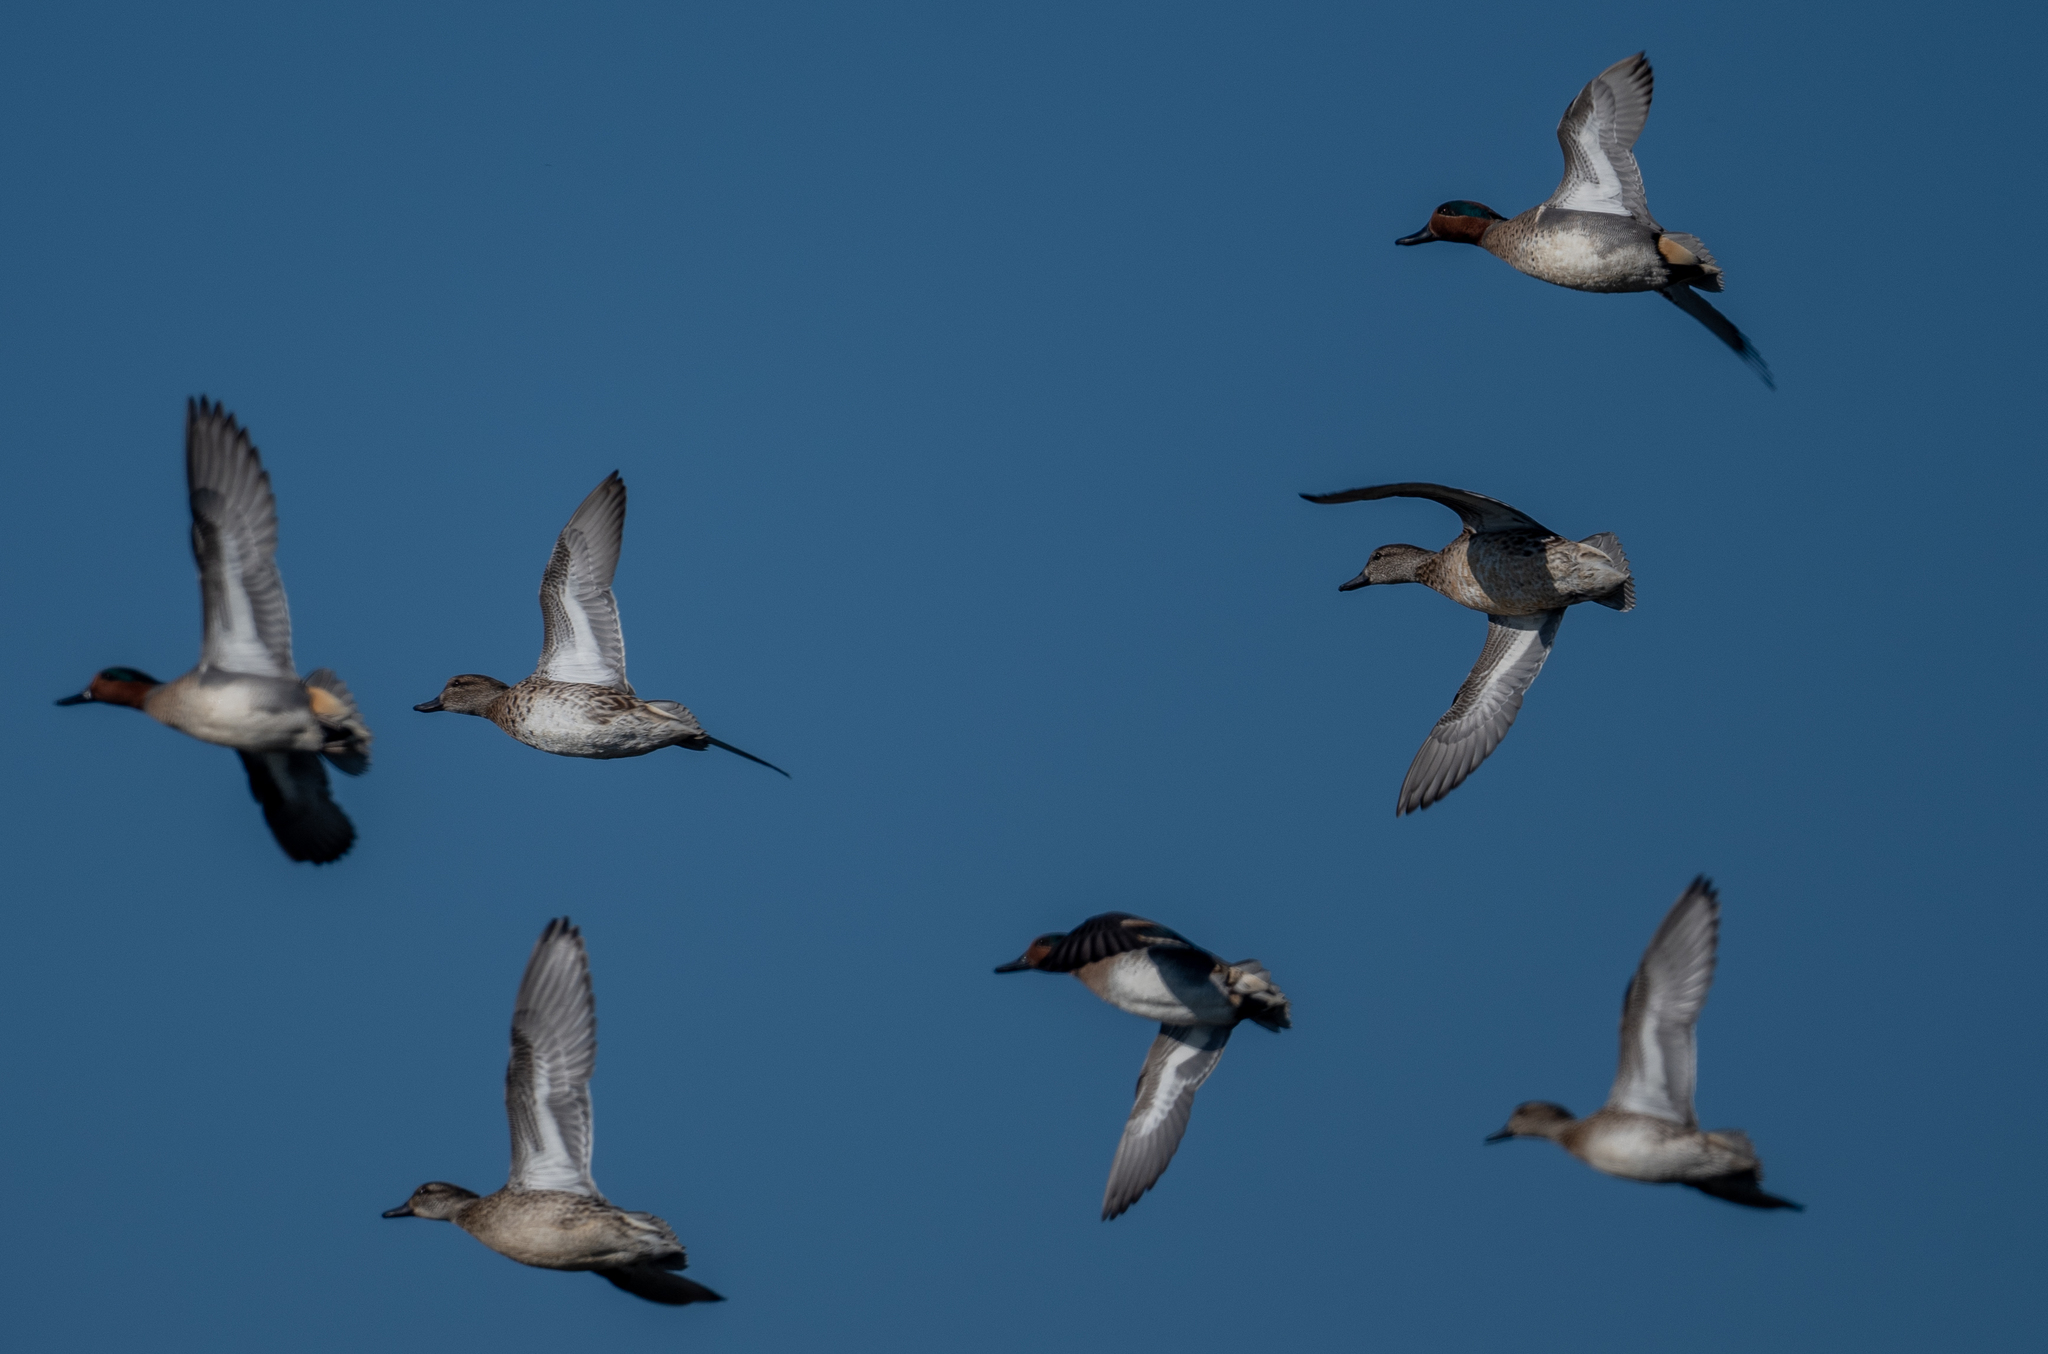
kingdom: Animalia
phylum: Chordata
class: Aves
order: Anseriformes
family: Anatidae
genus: Anas
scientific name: Anas crecca
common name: Eurasian teal
